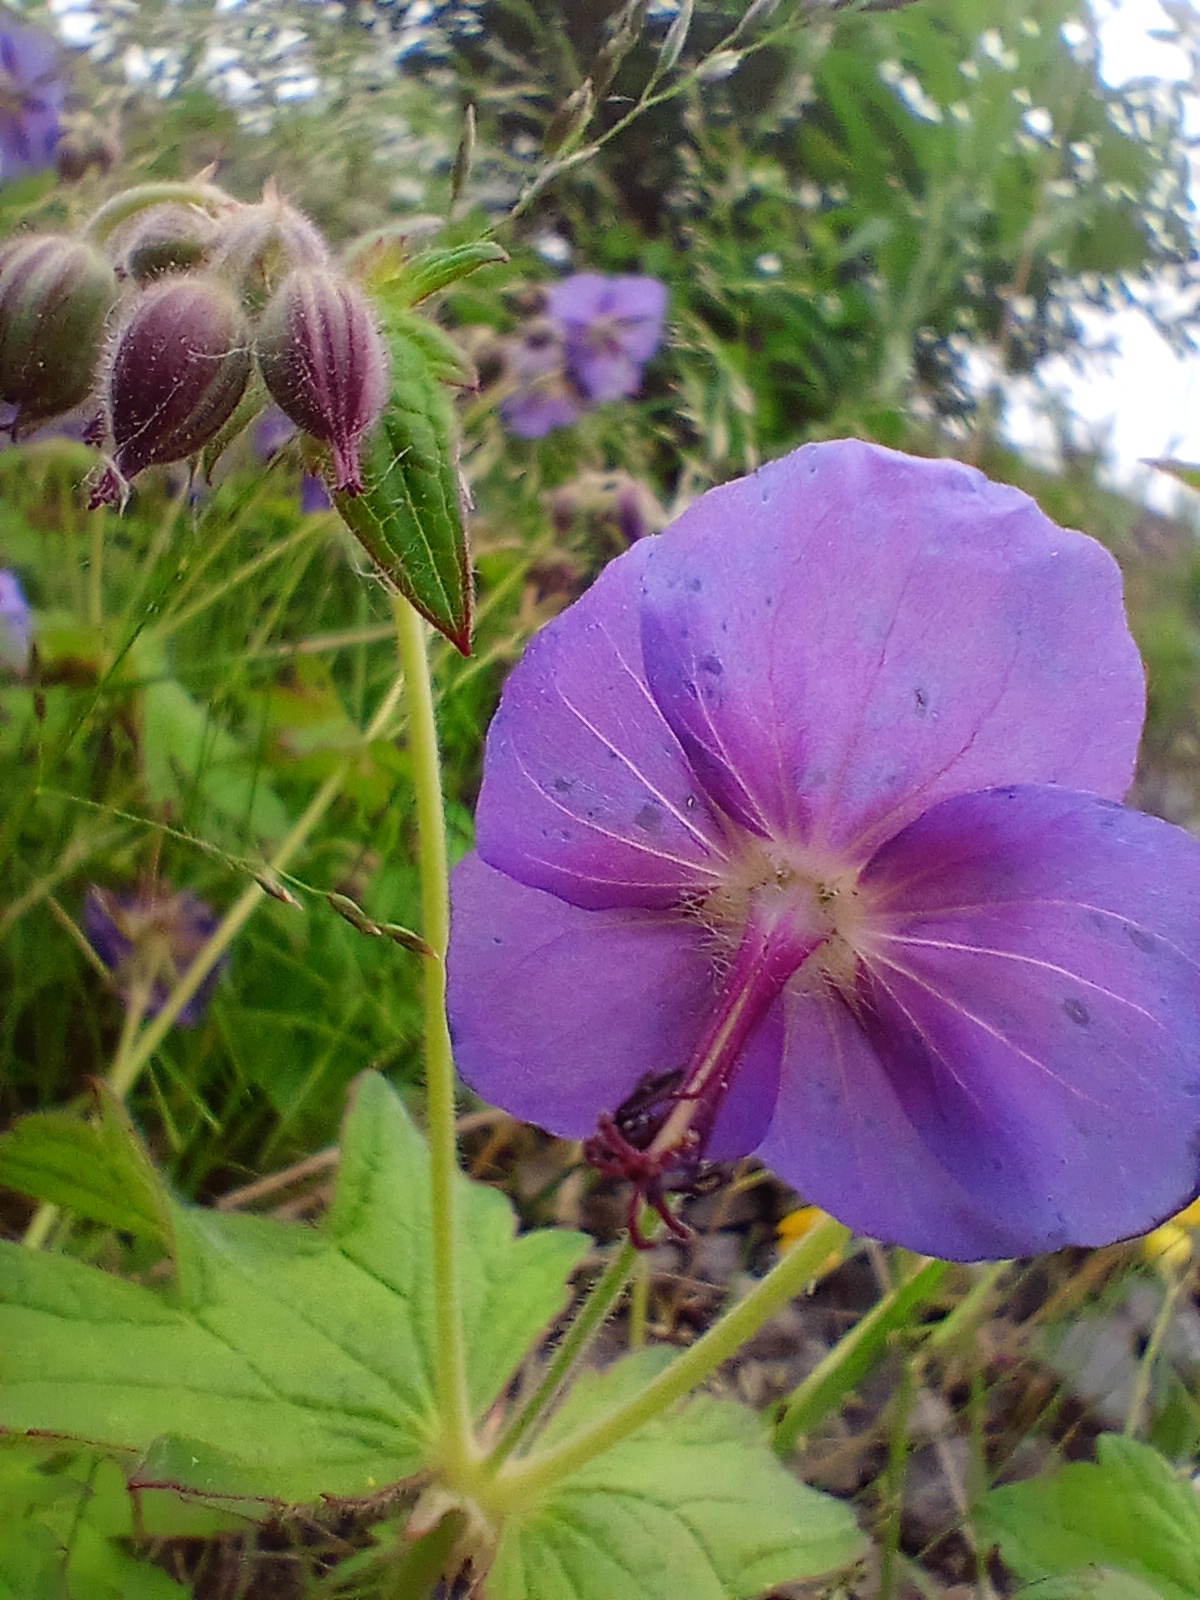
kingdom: Plantae
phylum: Tracheophyta
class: Magnoliopsida
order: Geraniales
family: Geraniaceae
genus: Geranium
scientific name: Geranium platyanthum
